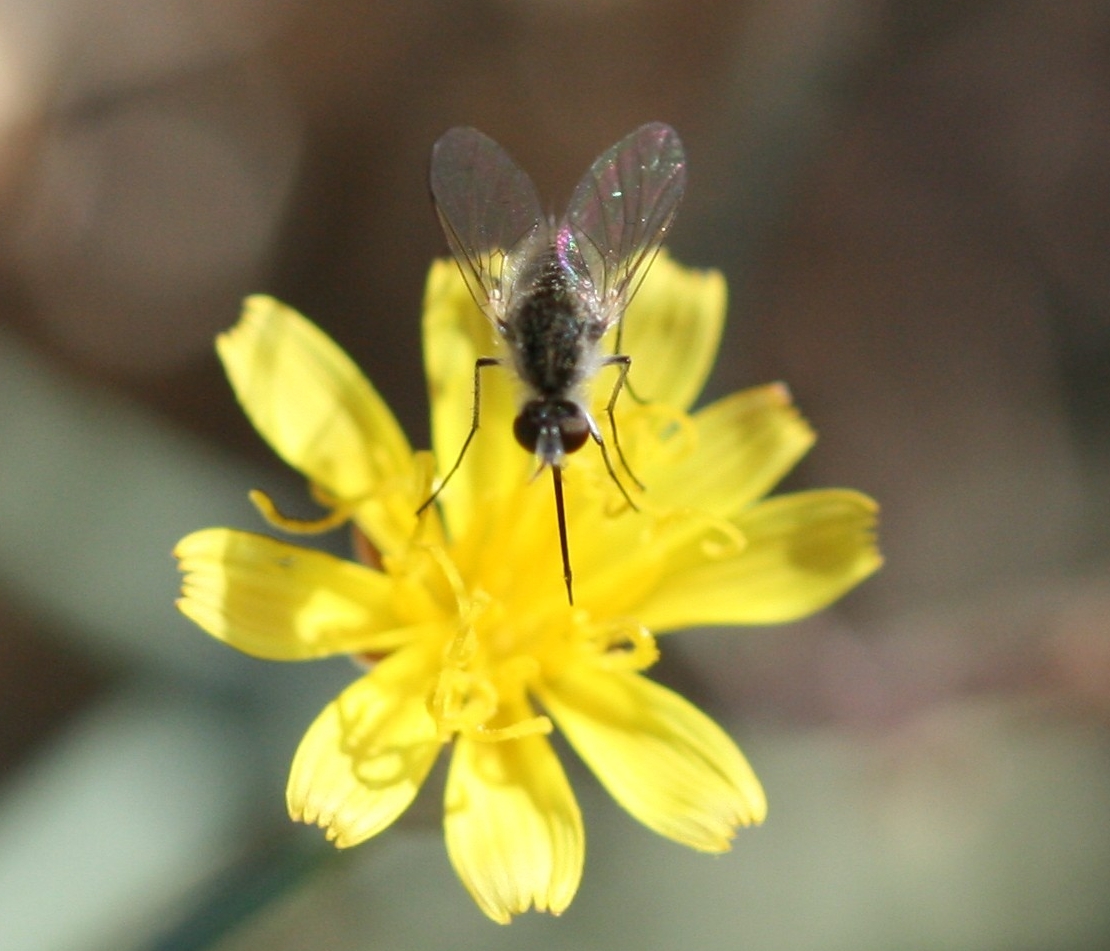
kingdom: Animalia
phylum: Arthropoda
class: Insecta
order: Diptera
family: Bombyliidae
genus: Geron
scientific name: Geron hesperidum
